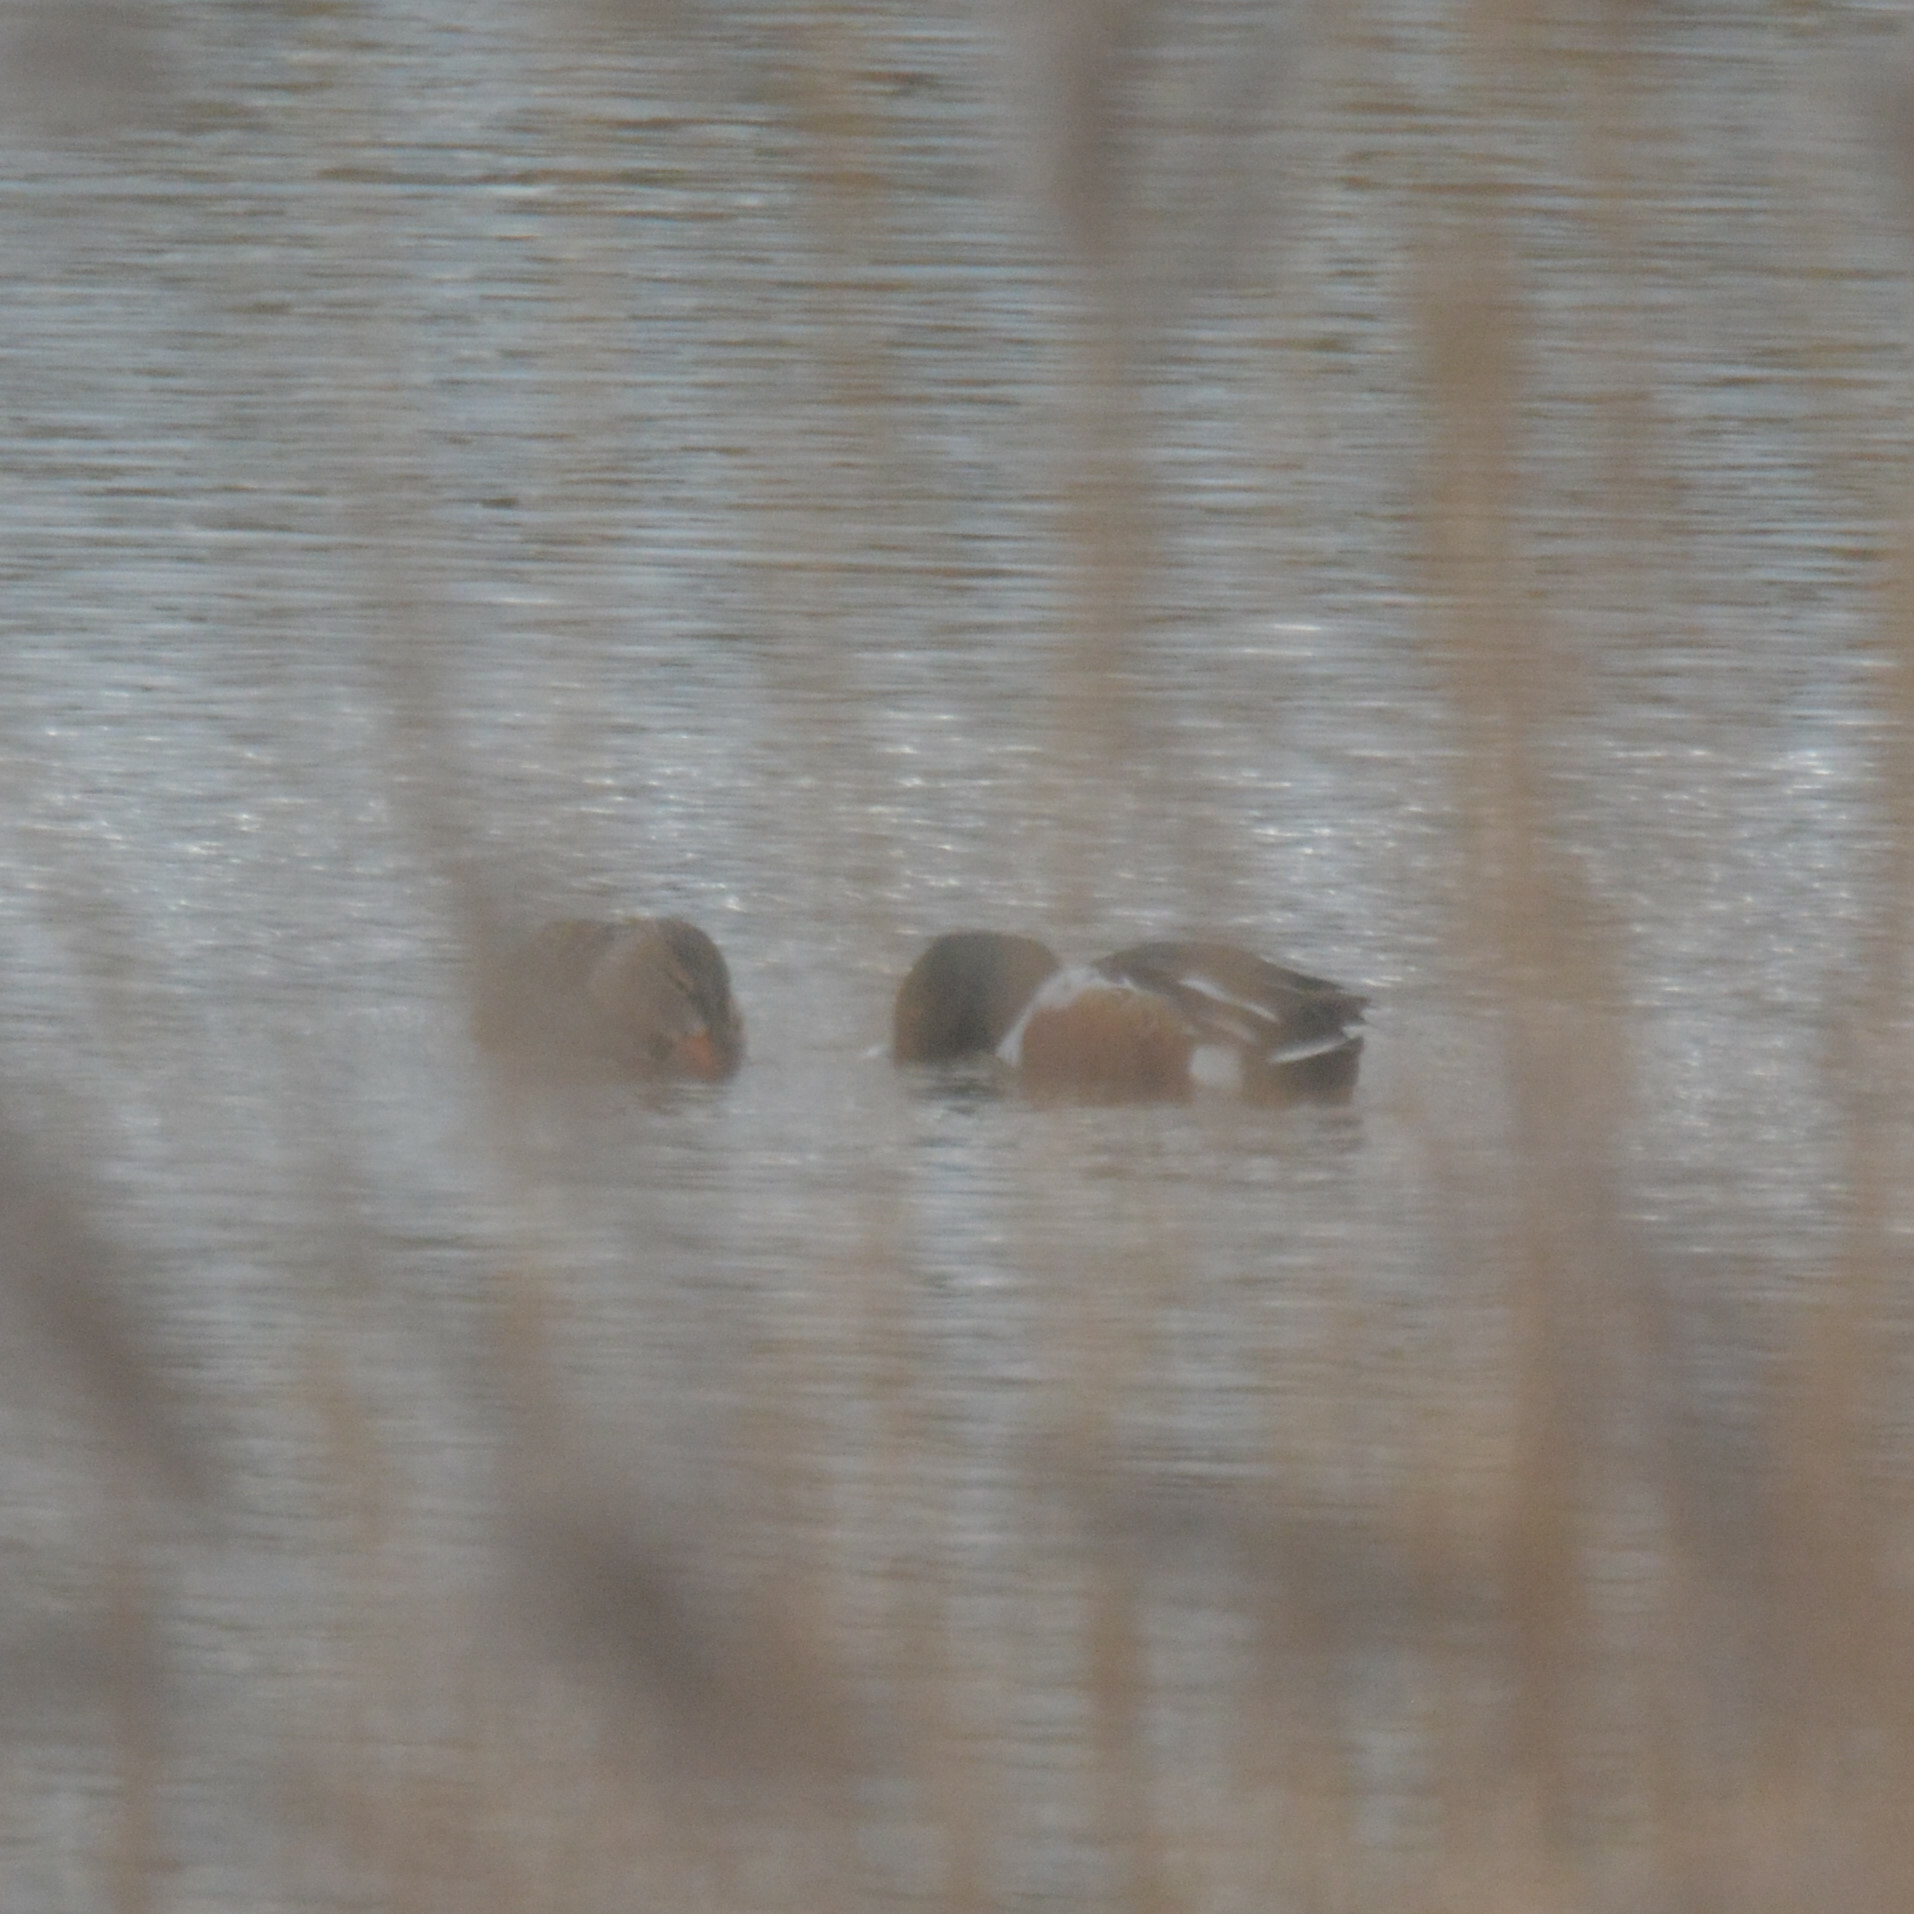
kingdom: Animalia
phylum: Chordata
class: Aves
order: Anseriformes
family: Anatidae
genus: Spatula
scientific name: Spatula clypeata
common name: Northern shoveler
